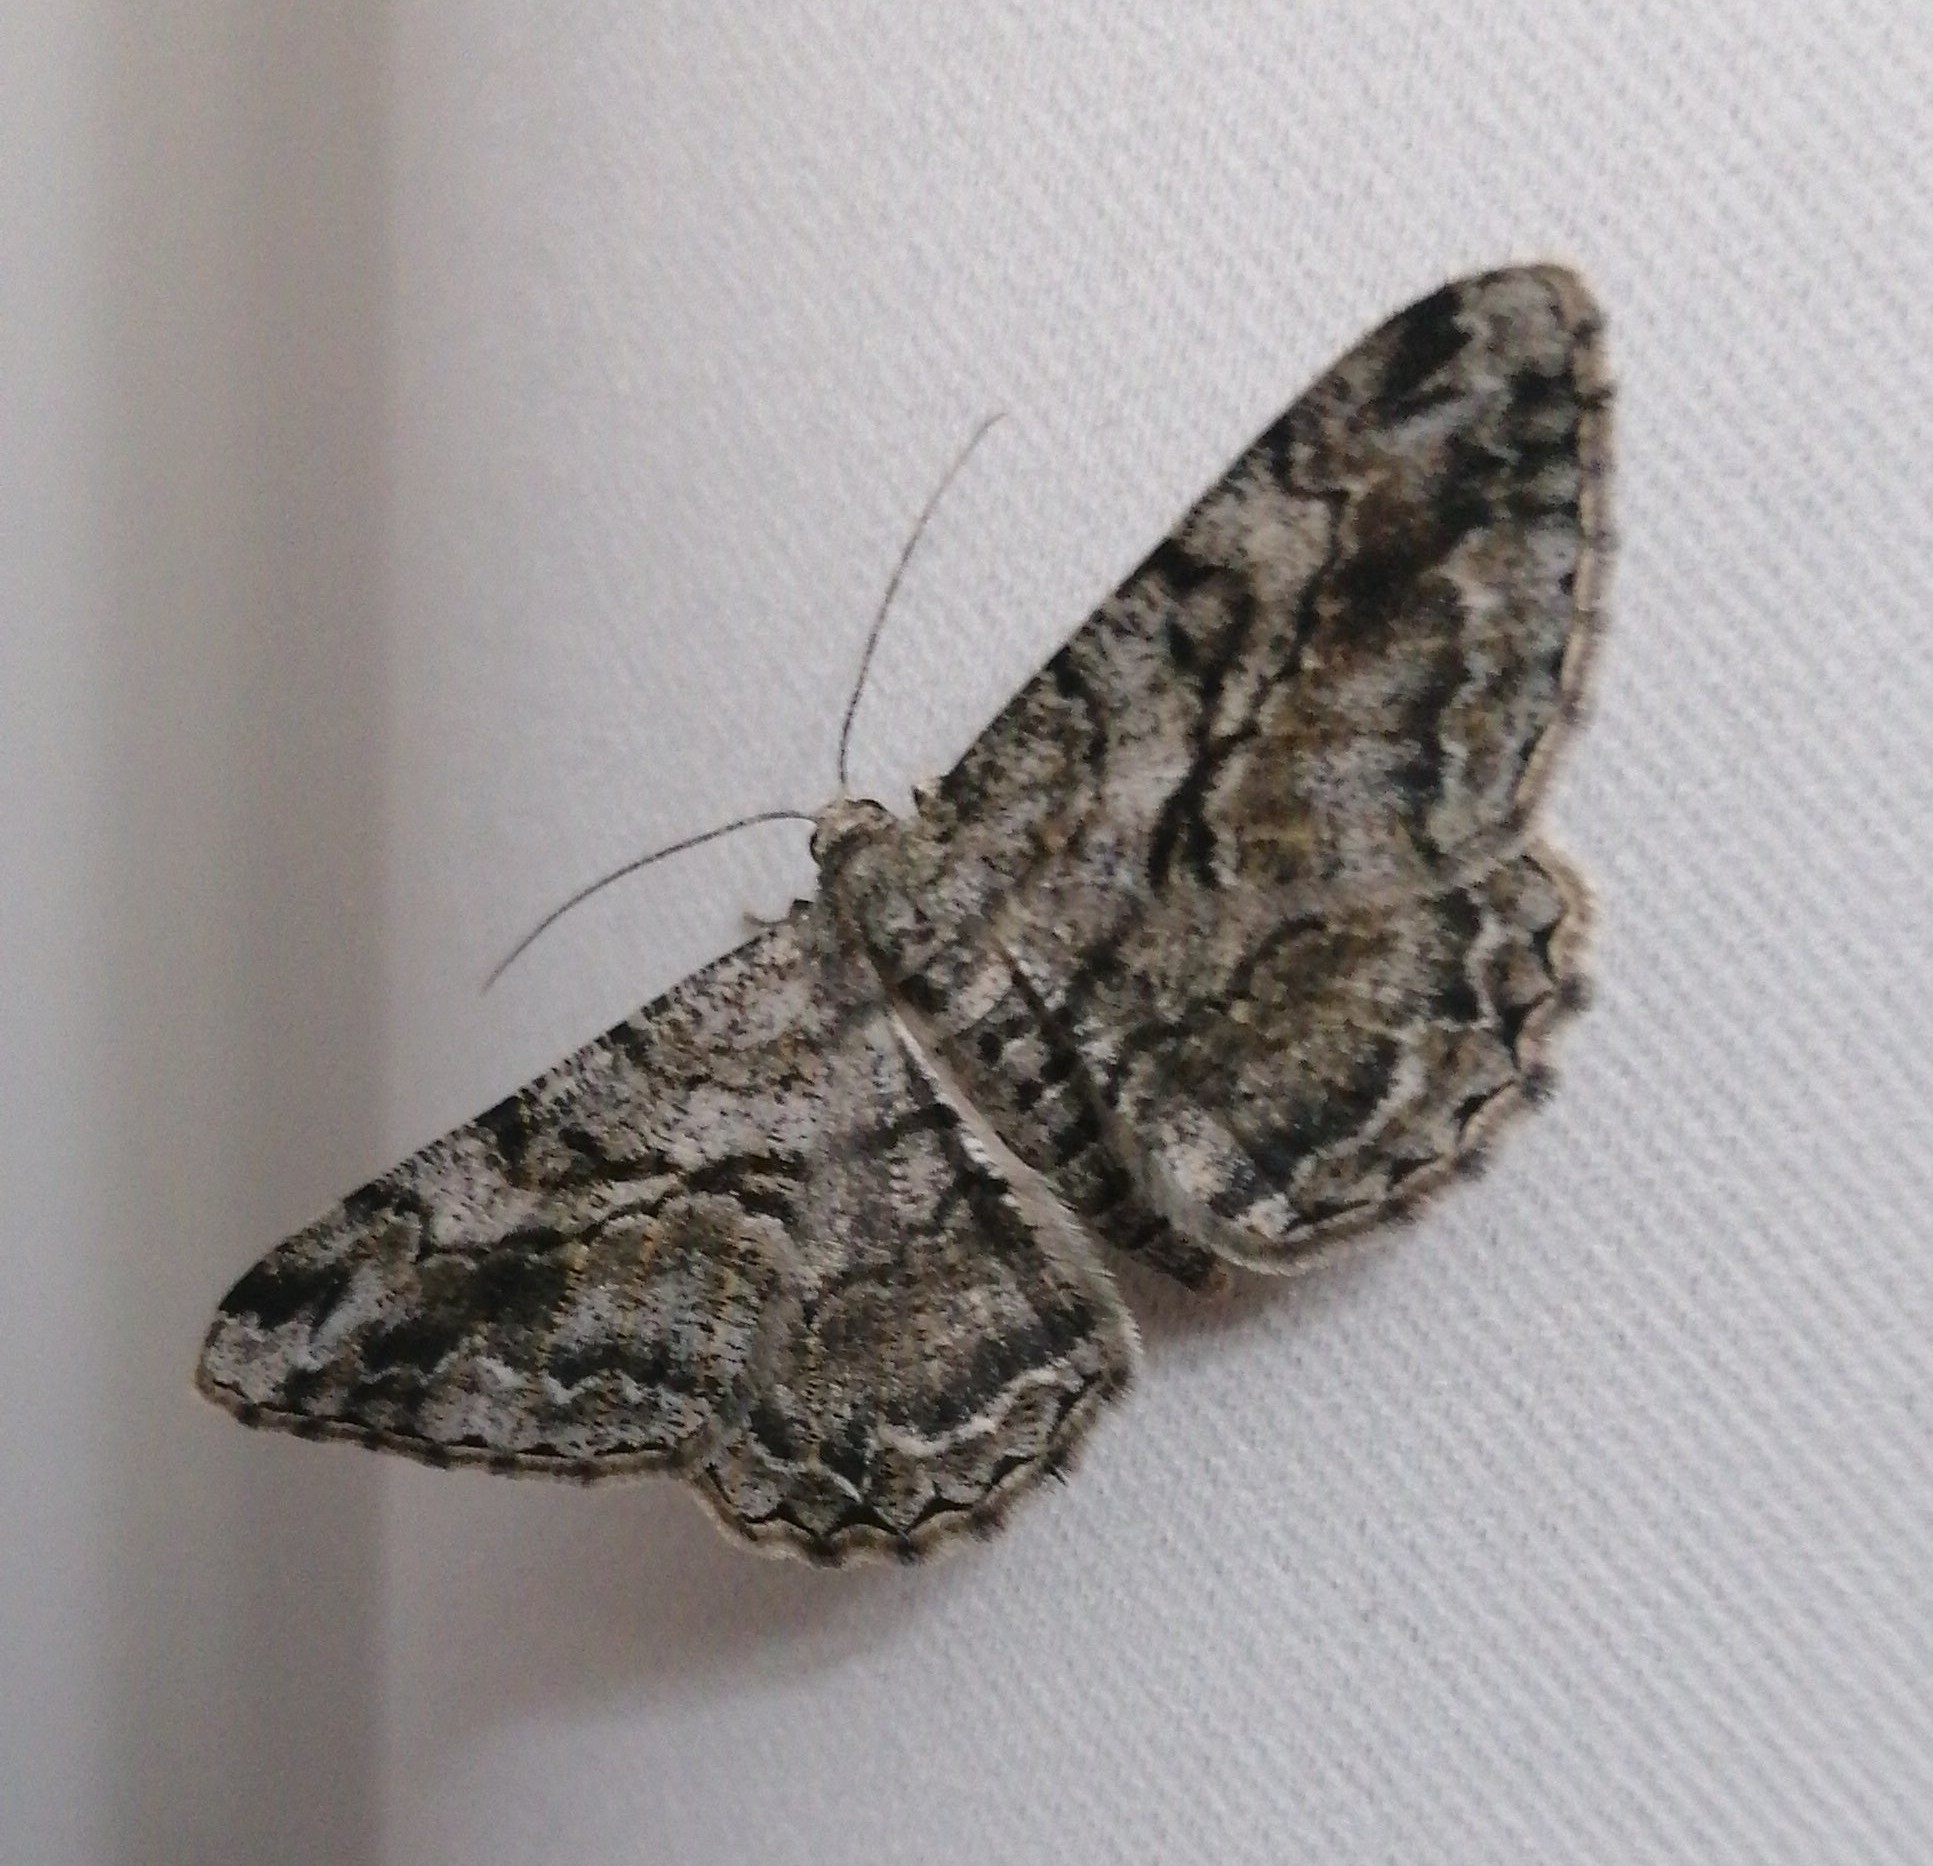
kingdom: Animalia
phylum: Arthropoda
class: Insecta
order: Lepidoptera
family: Geometridae
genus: Peribatodes
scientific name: Peribatodes secundaria
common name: Feathered beauty
